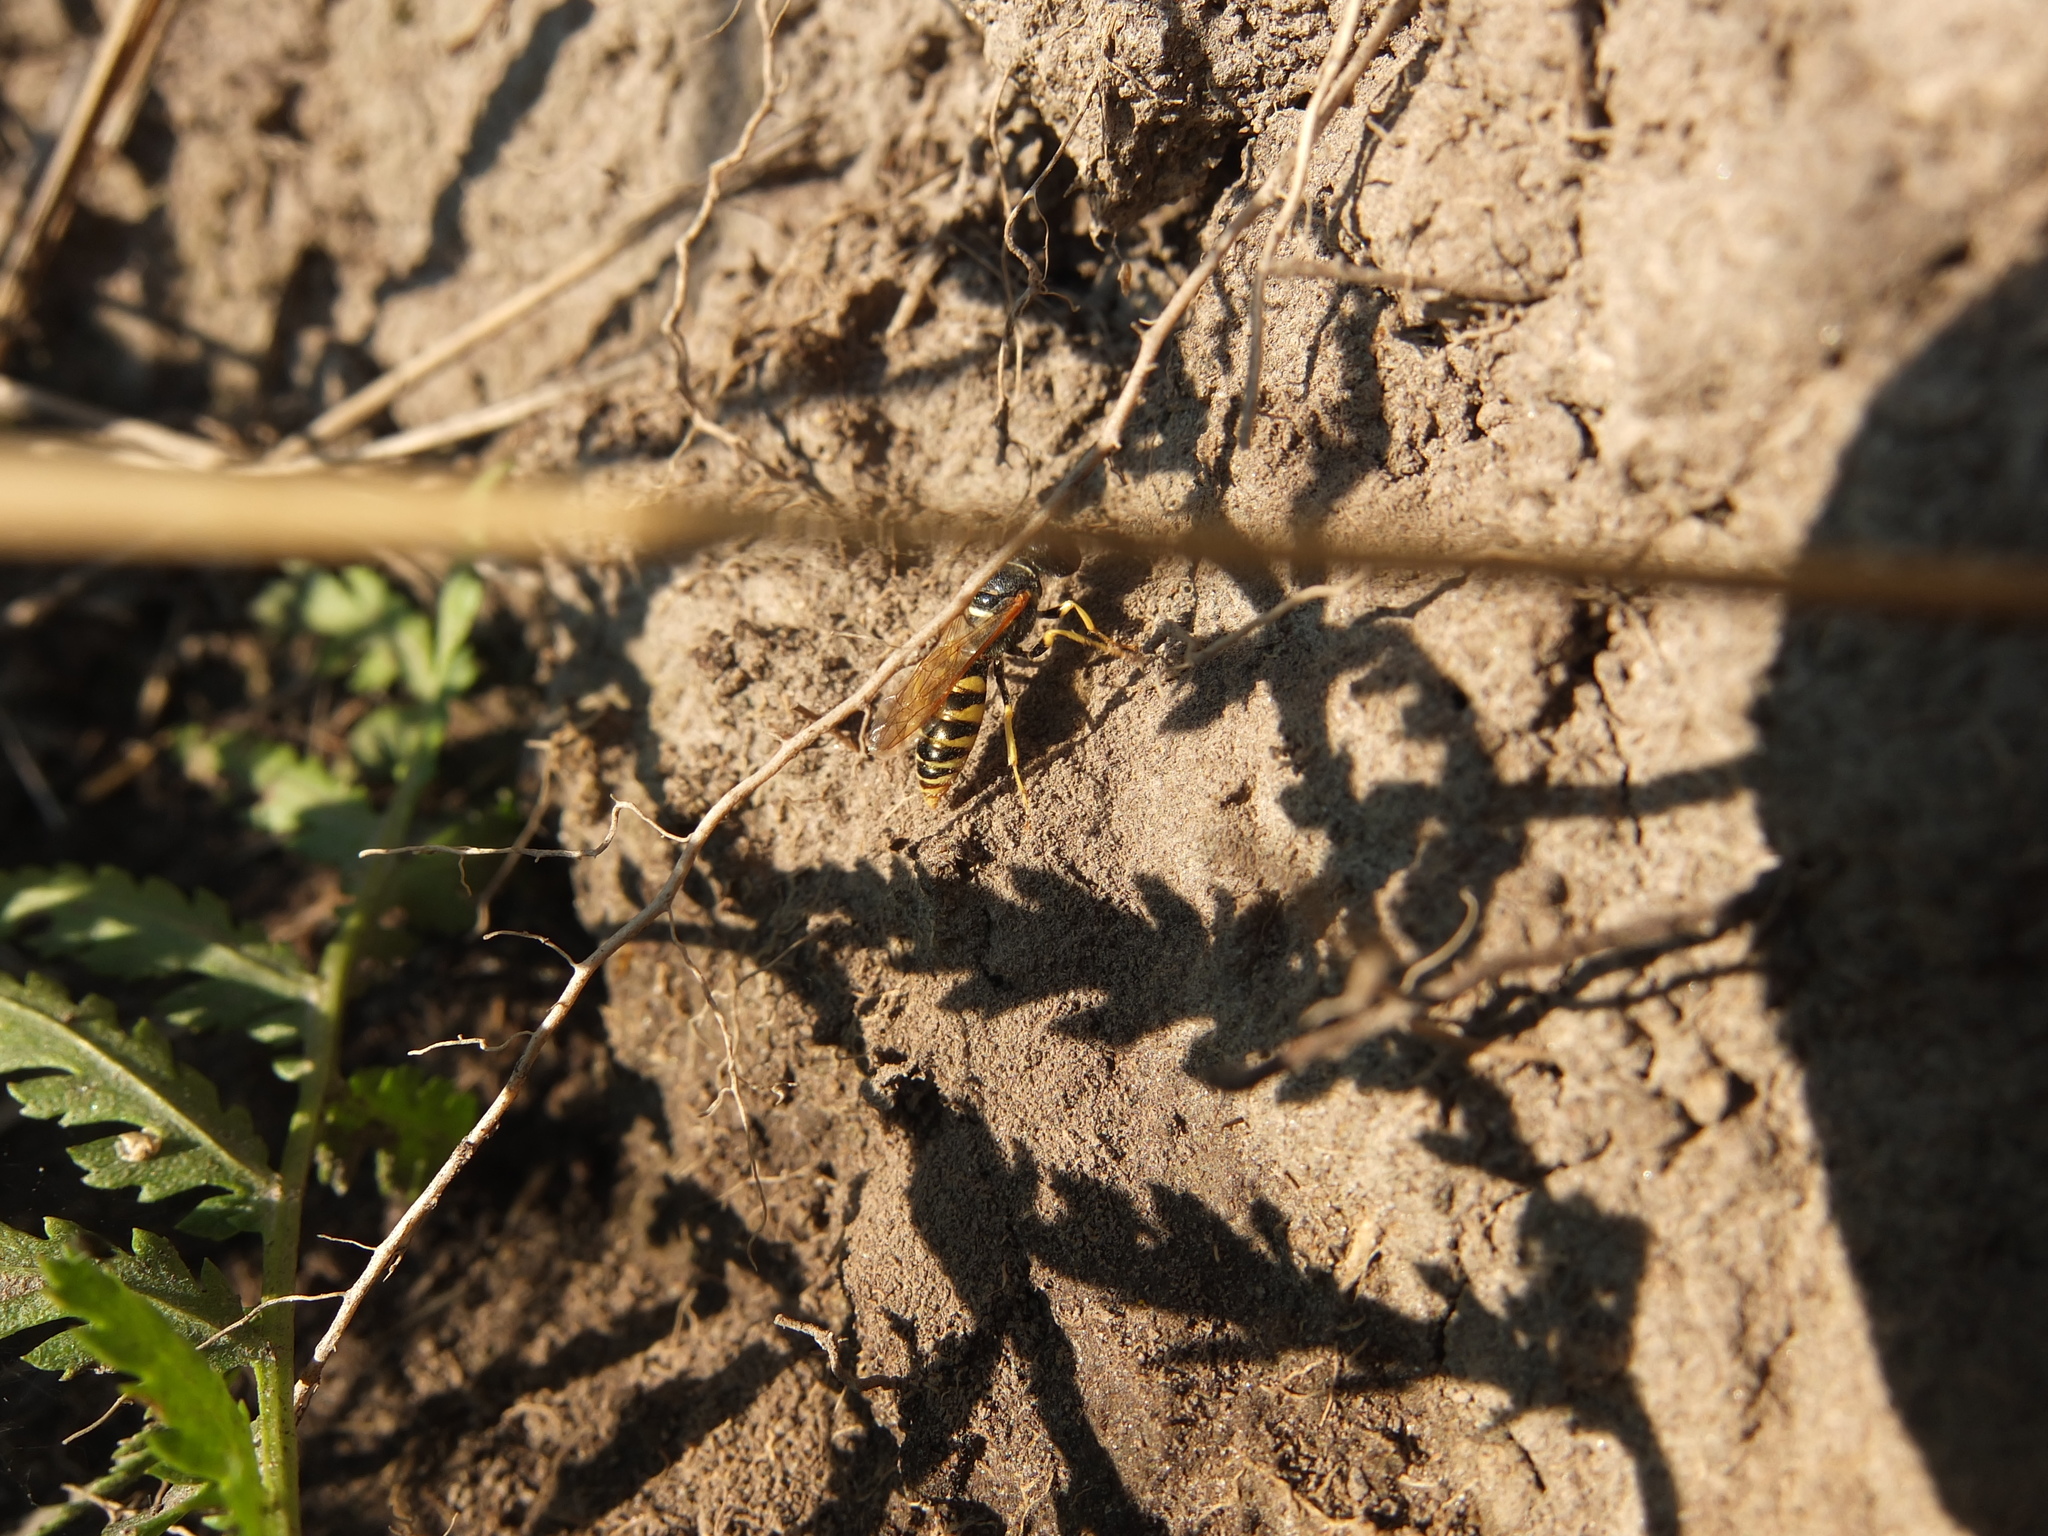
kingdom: Animalia
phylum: Arthropoda
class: Insecta
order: Hymenoptera
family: Crabronidae
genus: Philanthus
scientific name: Philanthus triangulum
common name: Bee wolf
